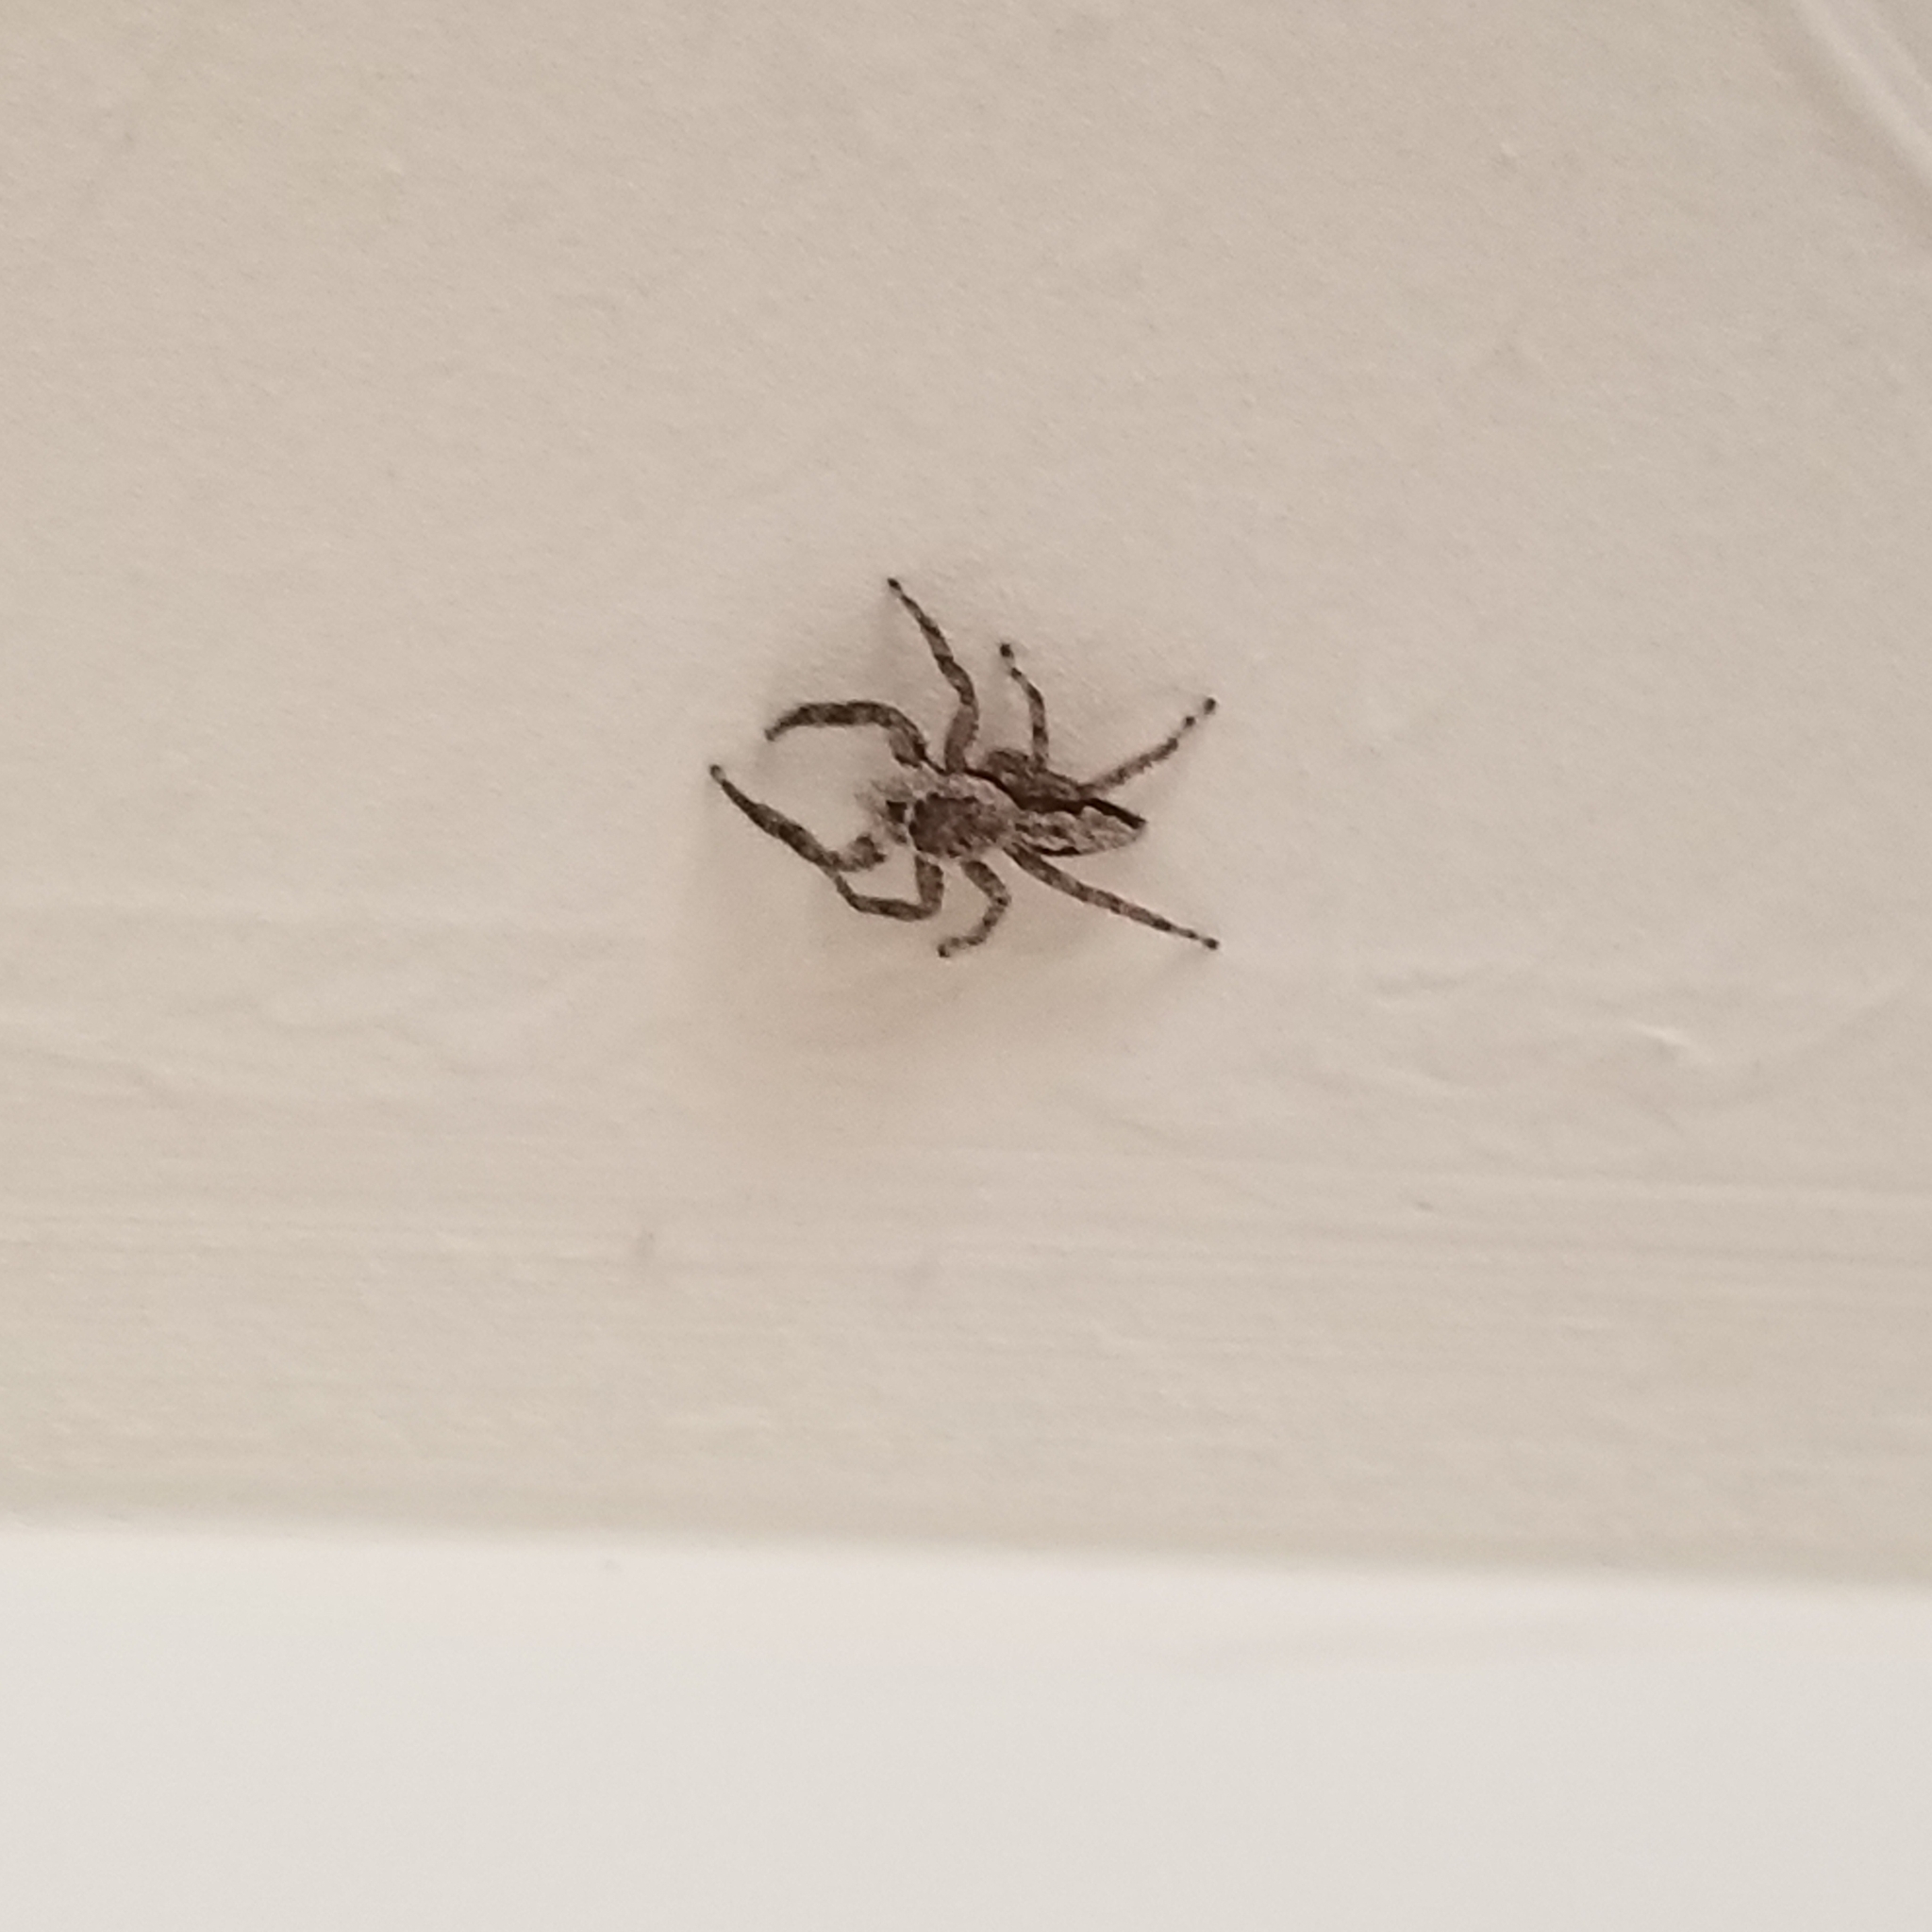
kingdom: Animalia
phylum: Arthropoda
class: Arachnida
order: Araneae
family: Salticidae
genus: Platycryptus
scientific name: Platycryptus undatus
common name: Tan jumping spider
